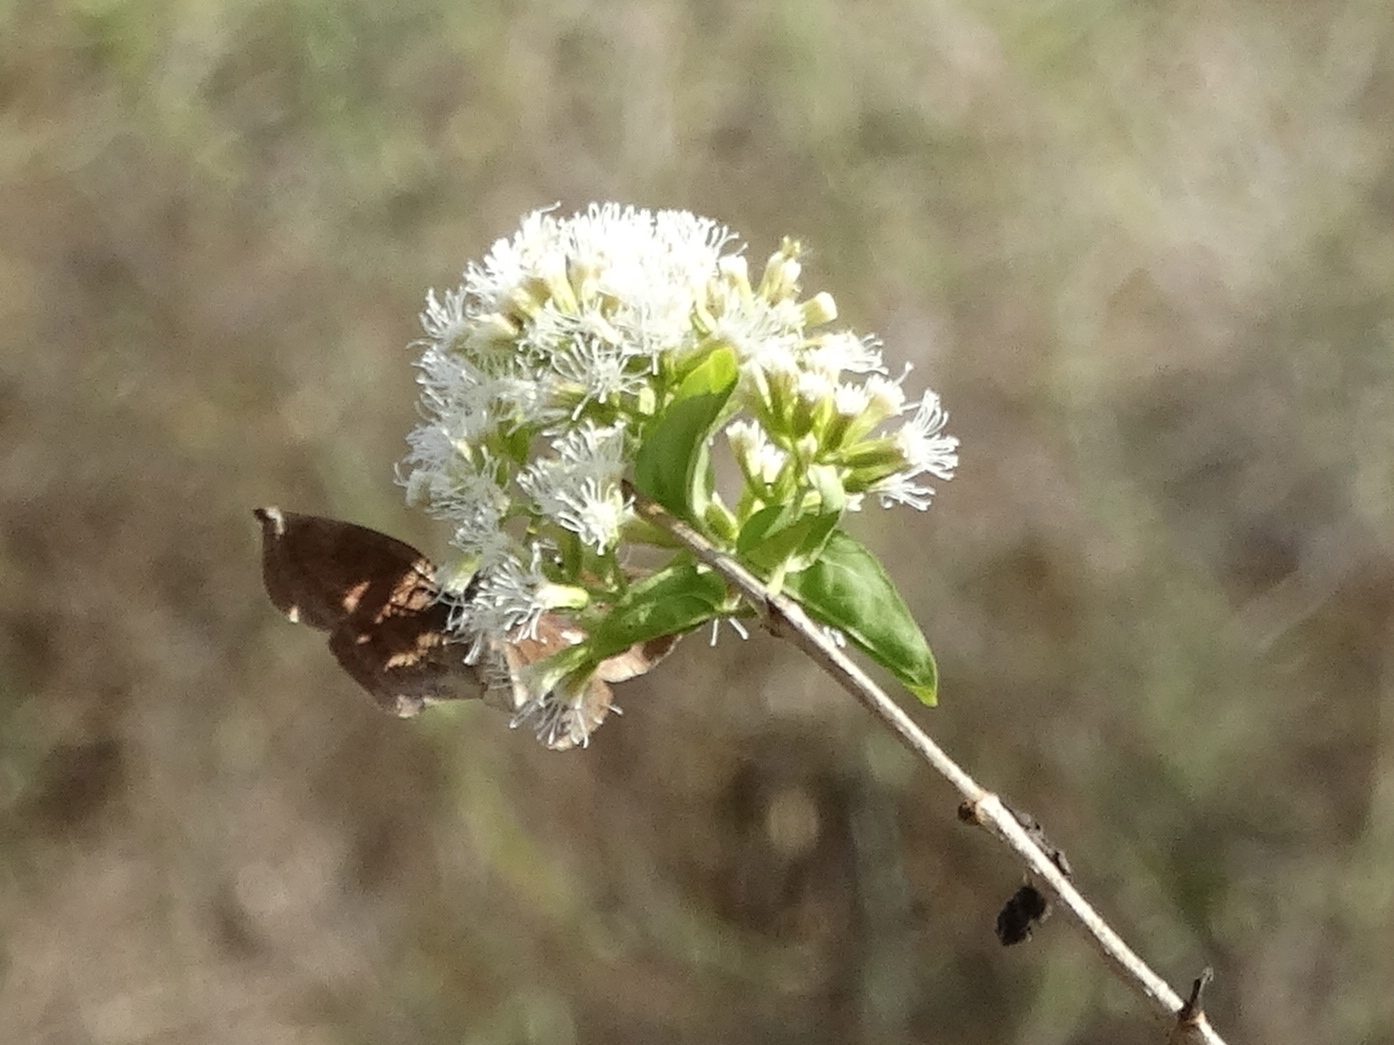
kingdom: Plantae
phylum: Tracheophyta
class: Magnoliopsida
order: Asterales
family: Asteraceae
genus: Koanophyllon
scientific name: Koanophyllon albicaule
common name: Old women's walking stick
